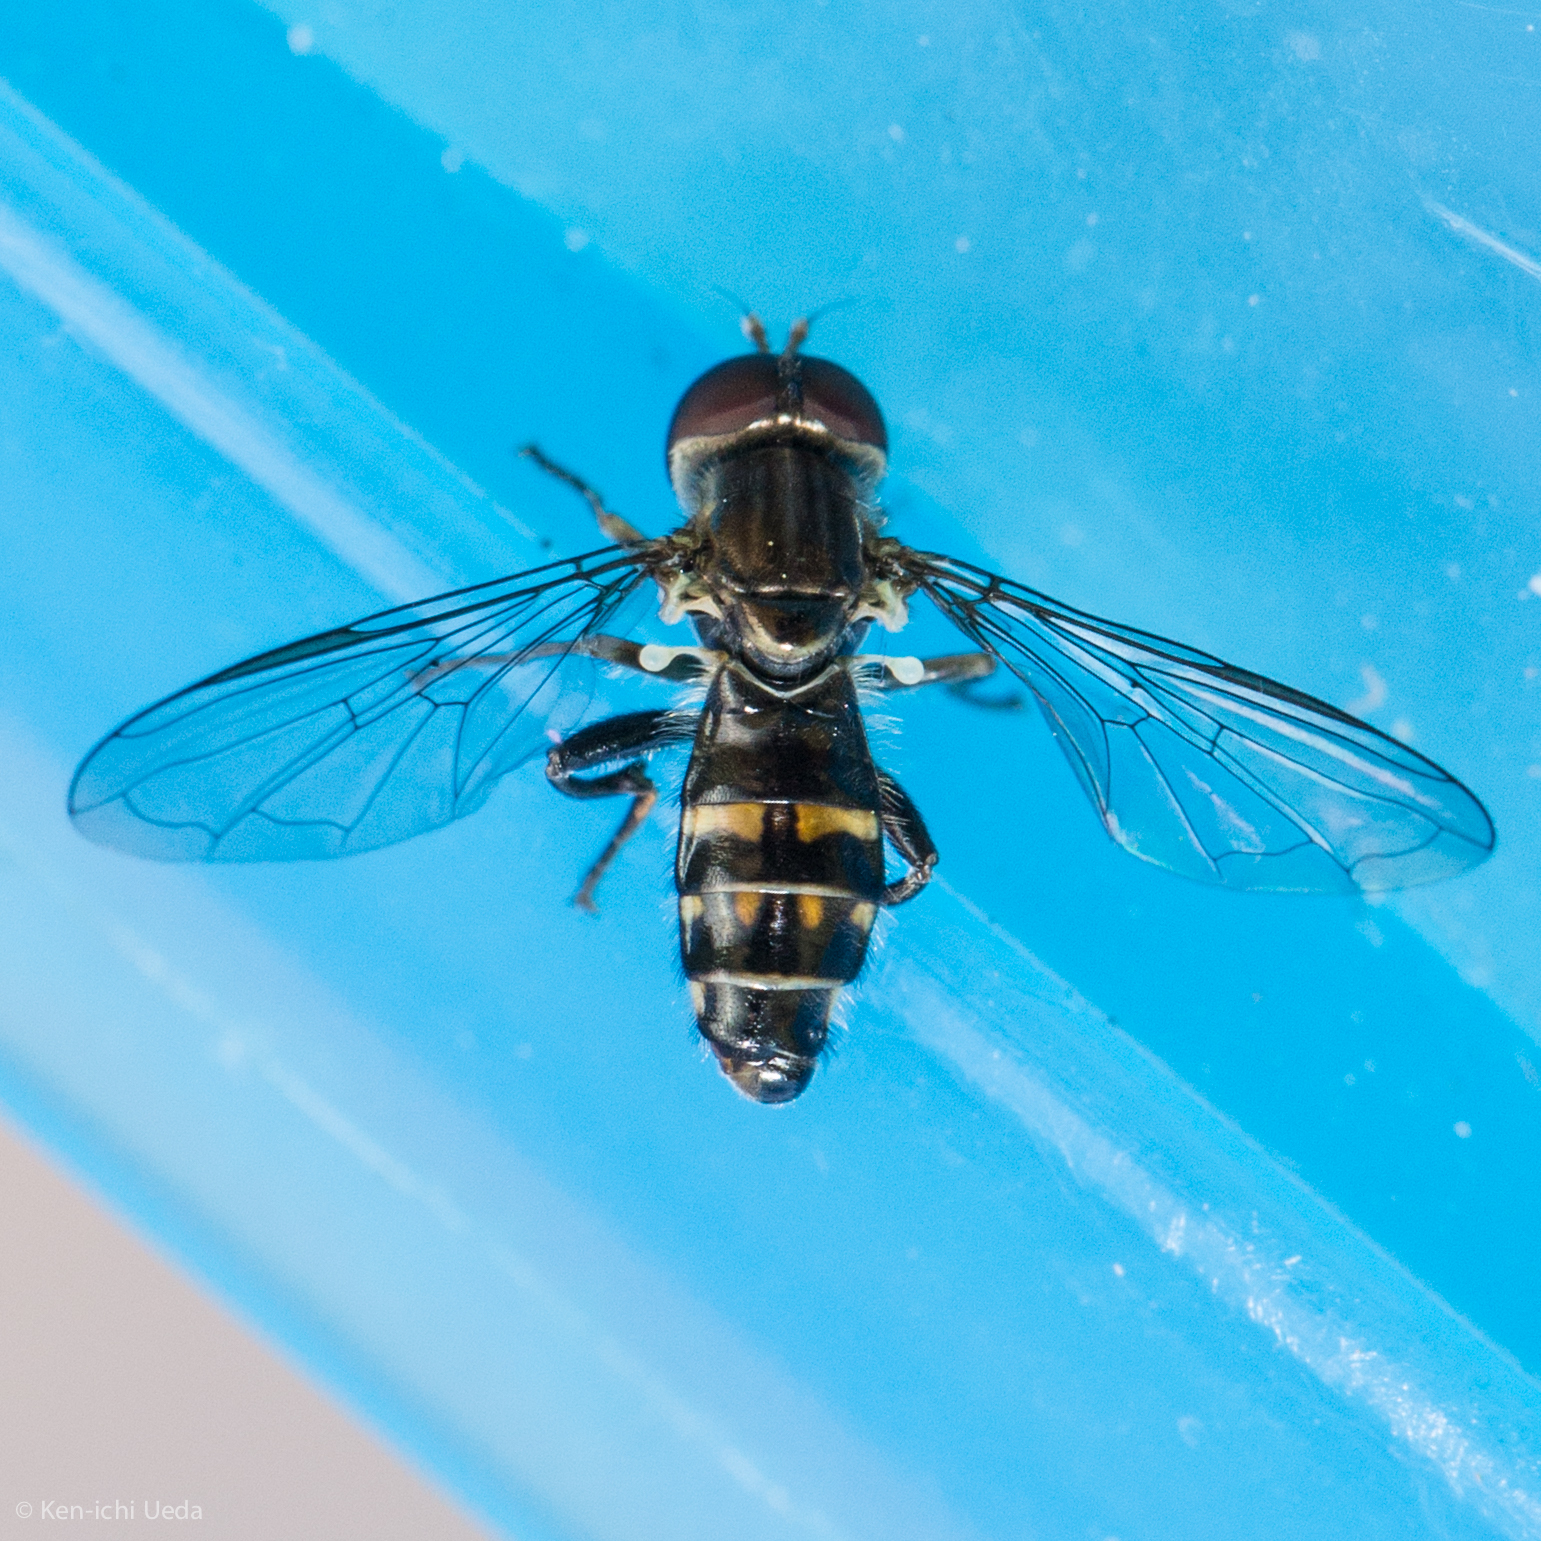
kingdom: Animalia
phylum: Arthropoda
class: Insecta
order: Diptera
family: Syrphidae
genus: Toxomerus
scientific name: Toxomerus occidentalis
